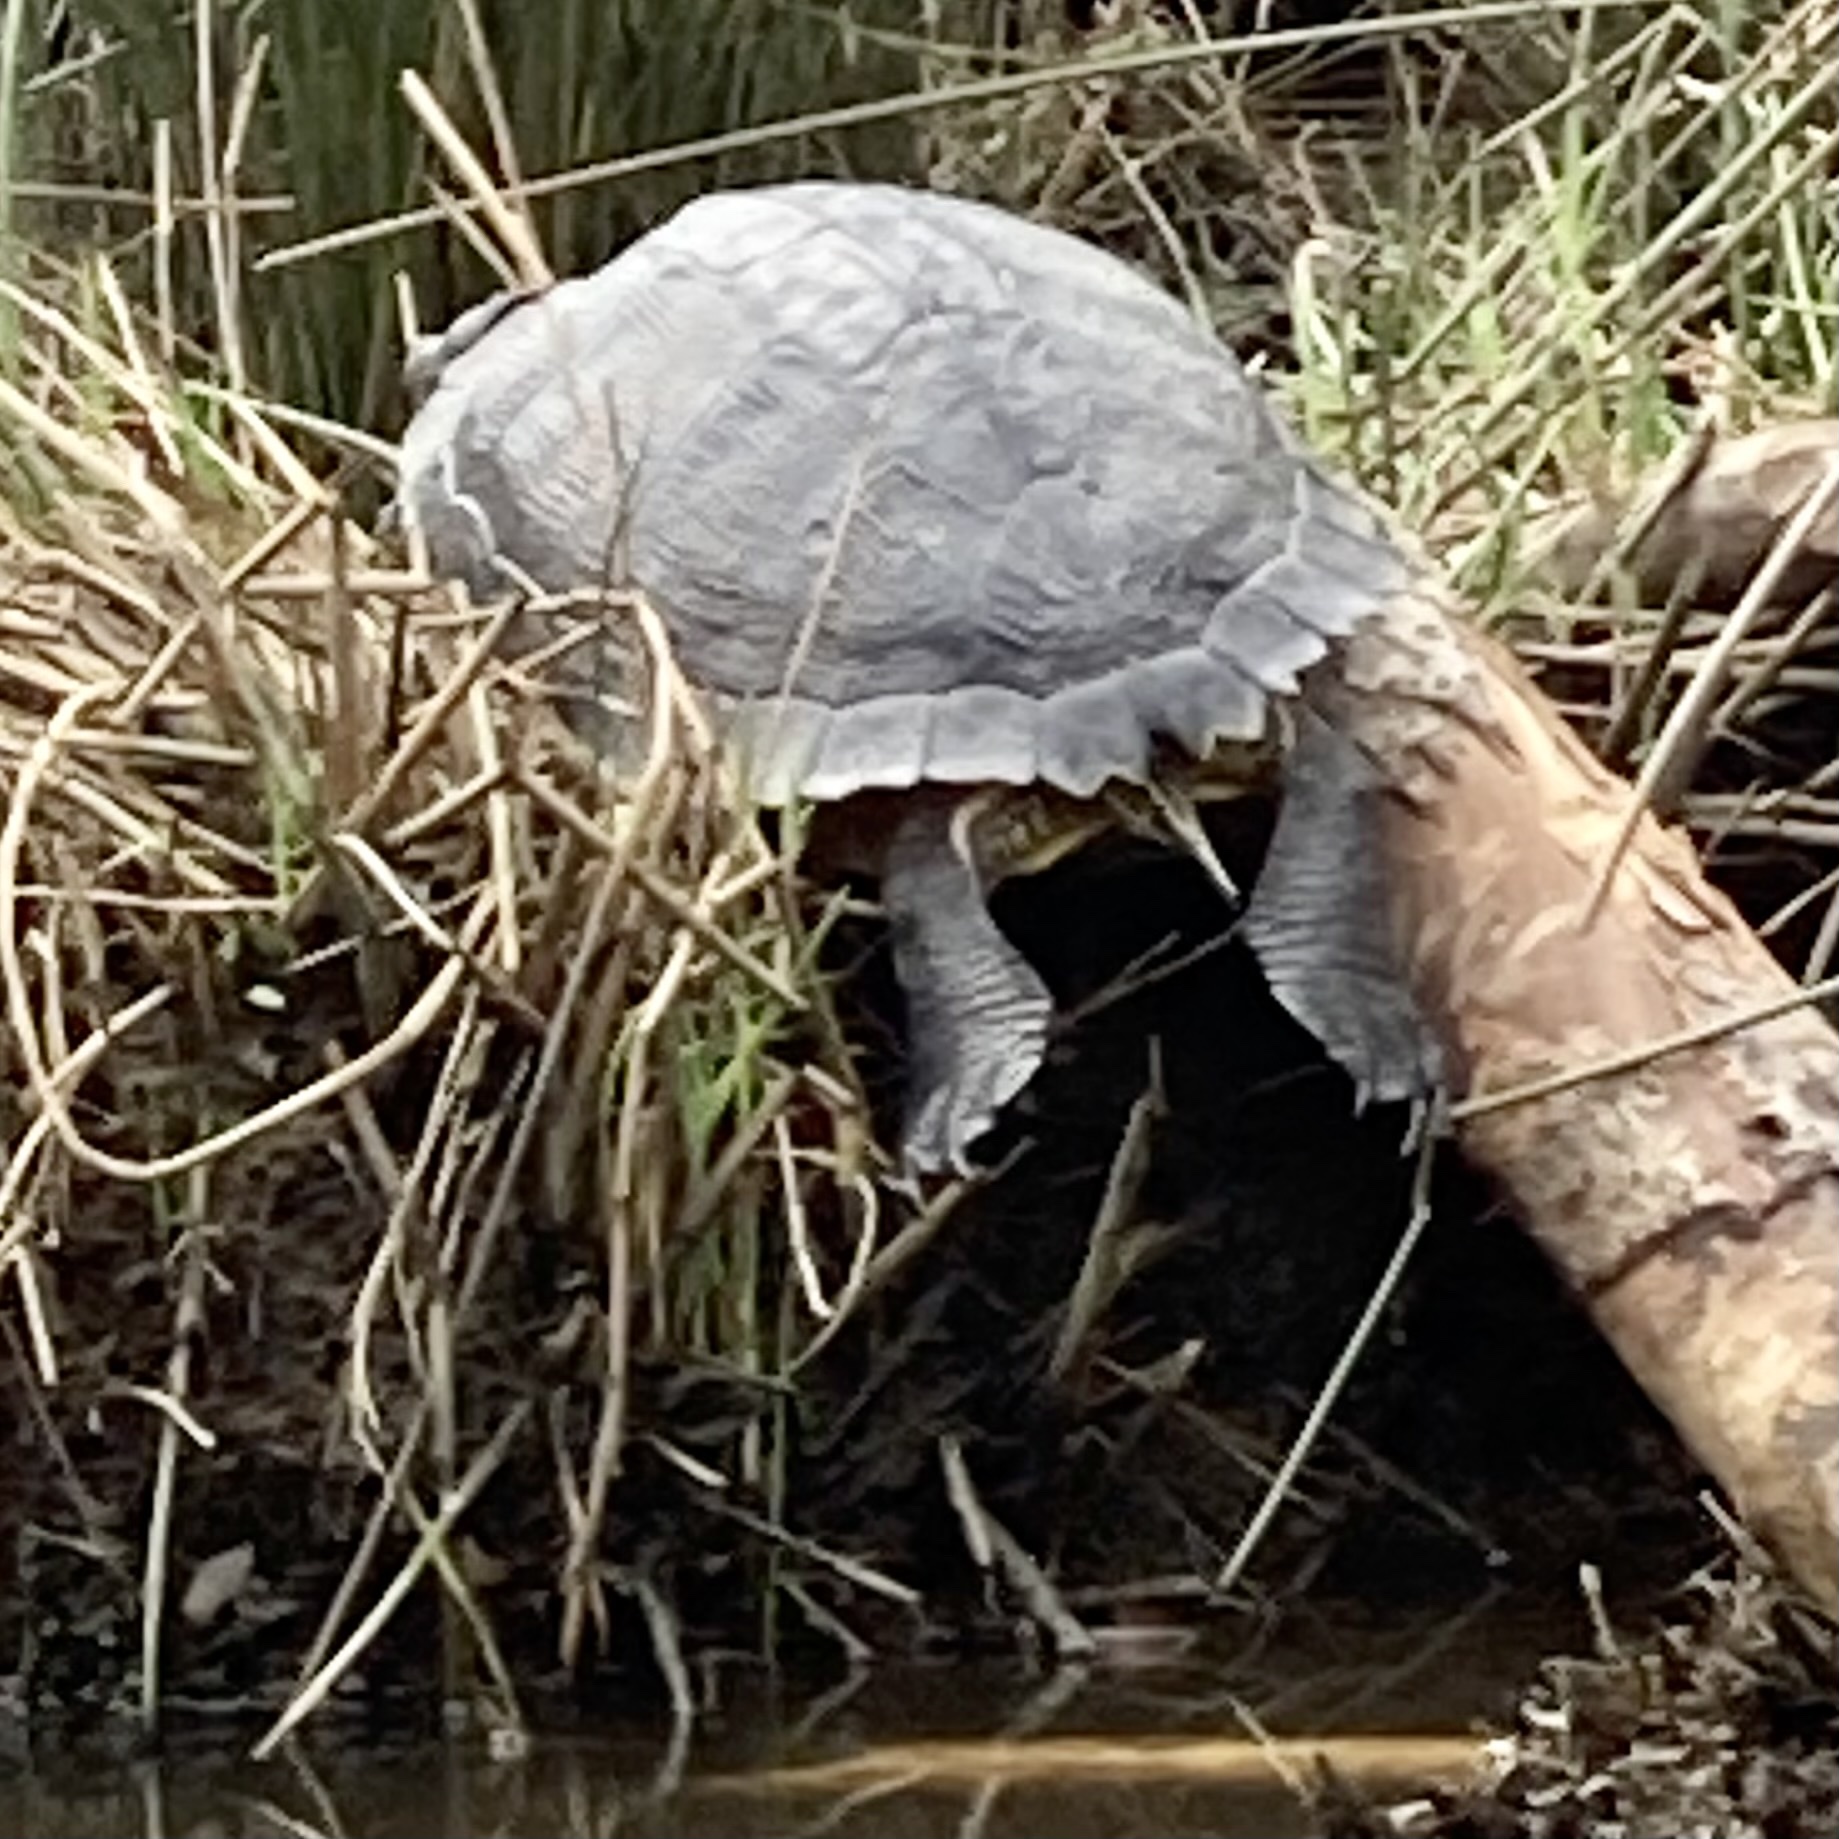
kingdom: Animalia
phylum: Chordata
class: Testudines
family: Emydidae
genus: Trachemys
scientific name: Trachemys scripta
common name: Slider
